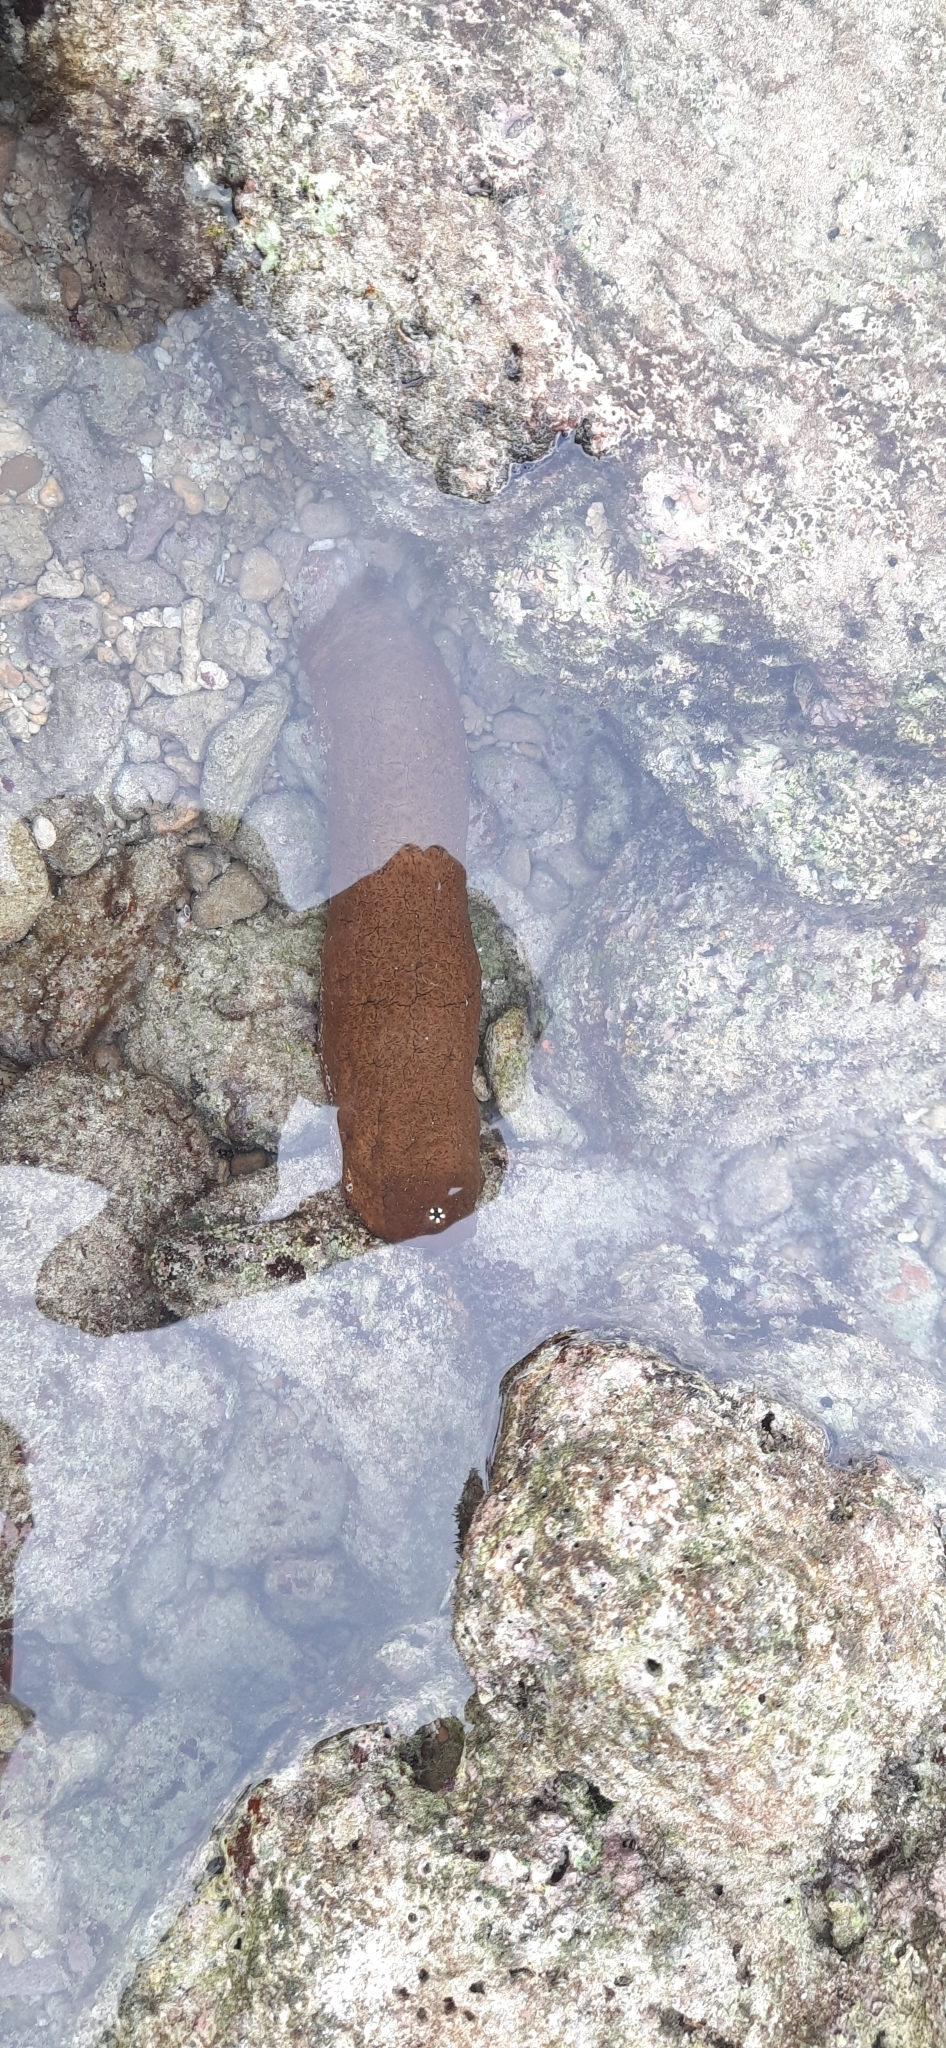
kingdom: Animalia
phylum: Echinodermata
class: Holothuroidea
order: Holothuriida
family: Holothuriidae
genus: Actinopyga
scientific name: Actinopyga mauritiana
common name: Surf redfish
